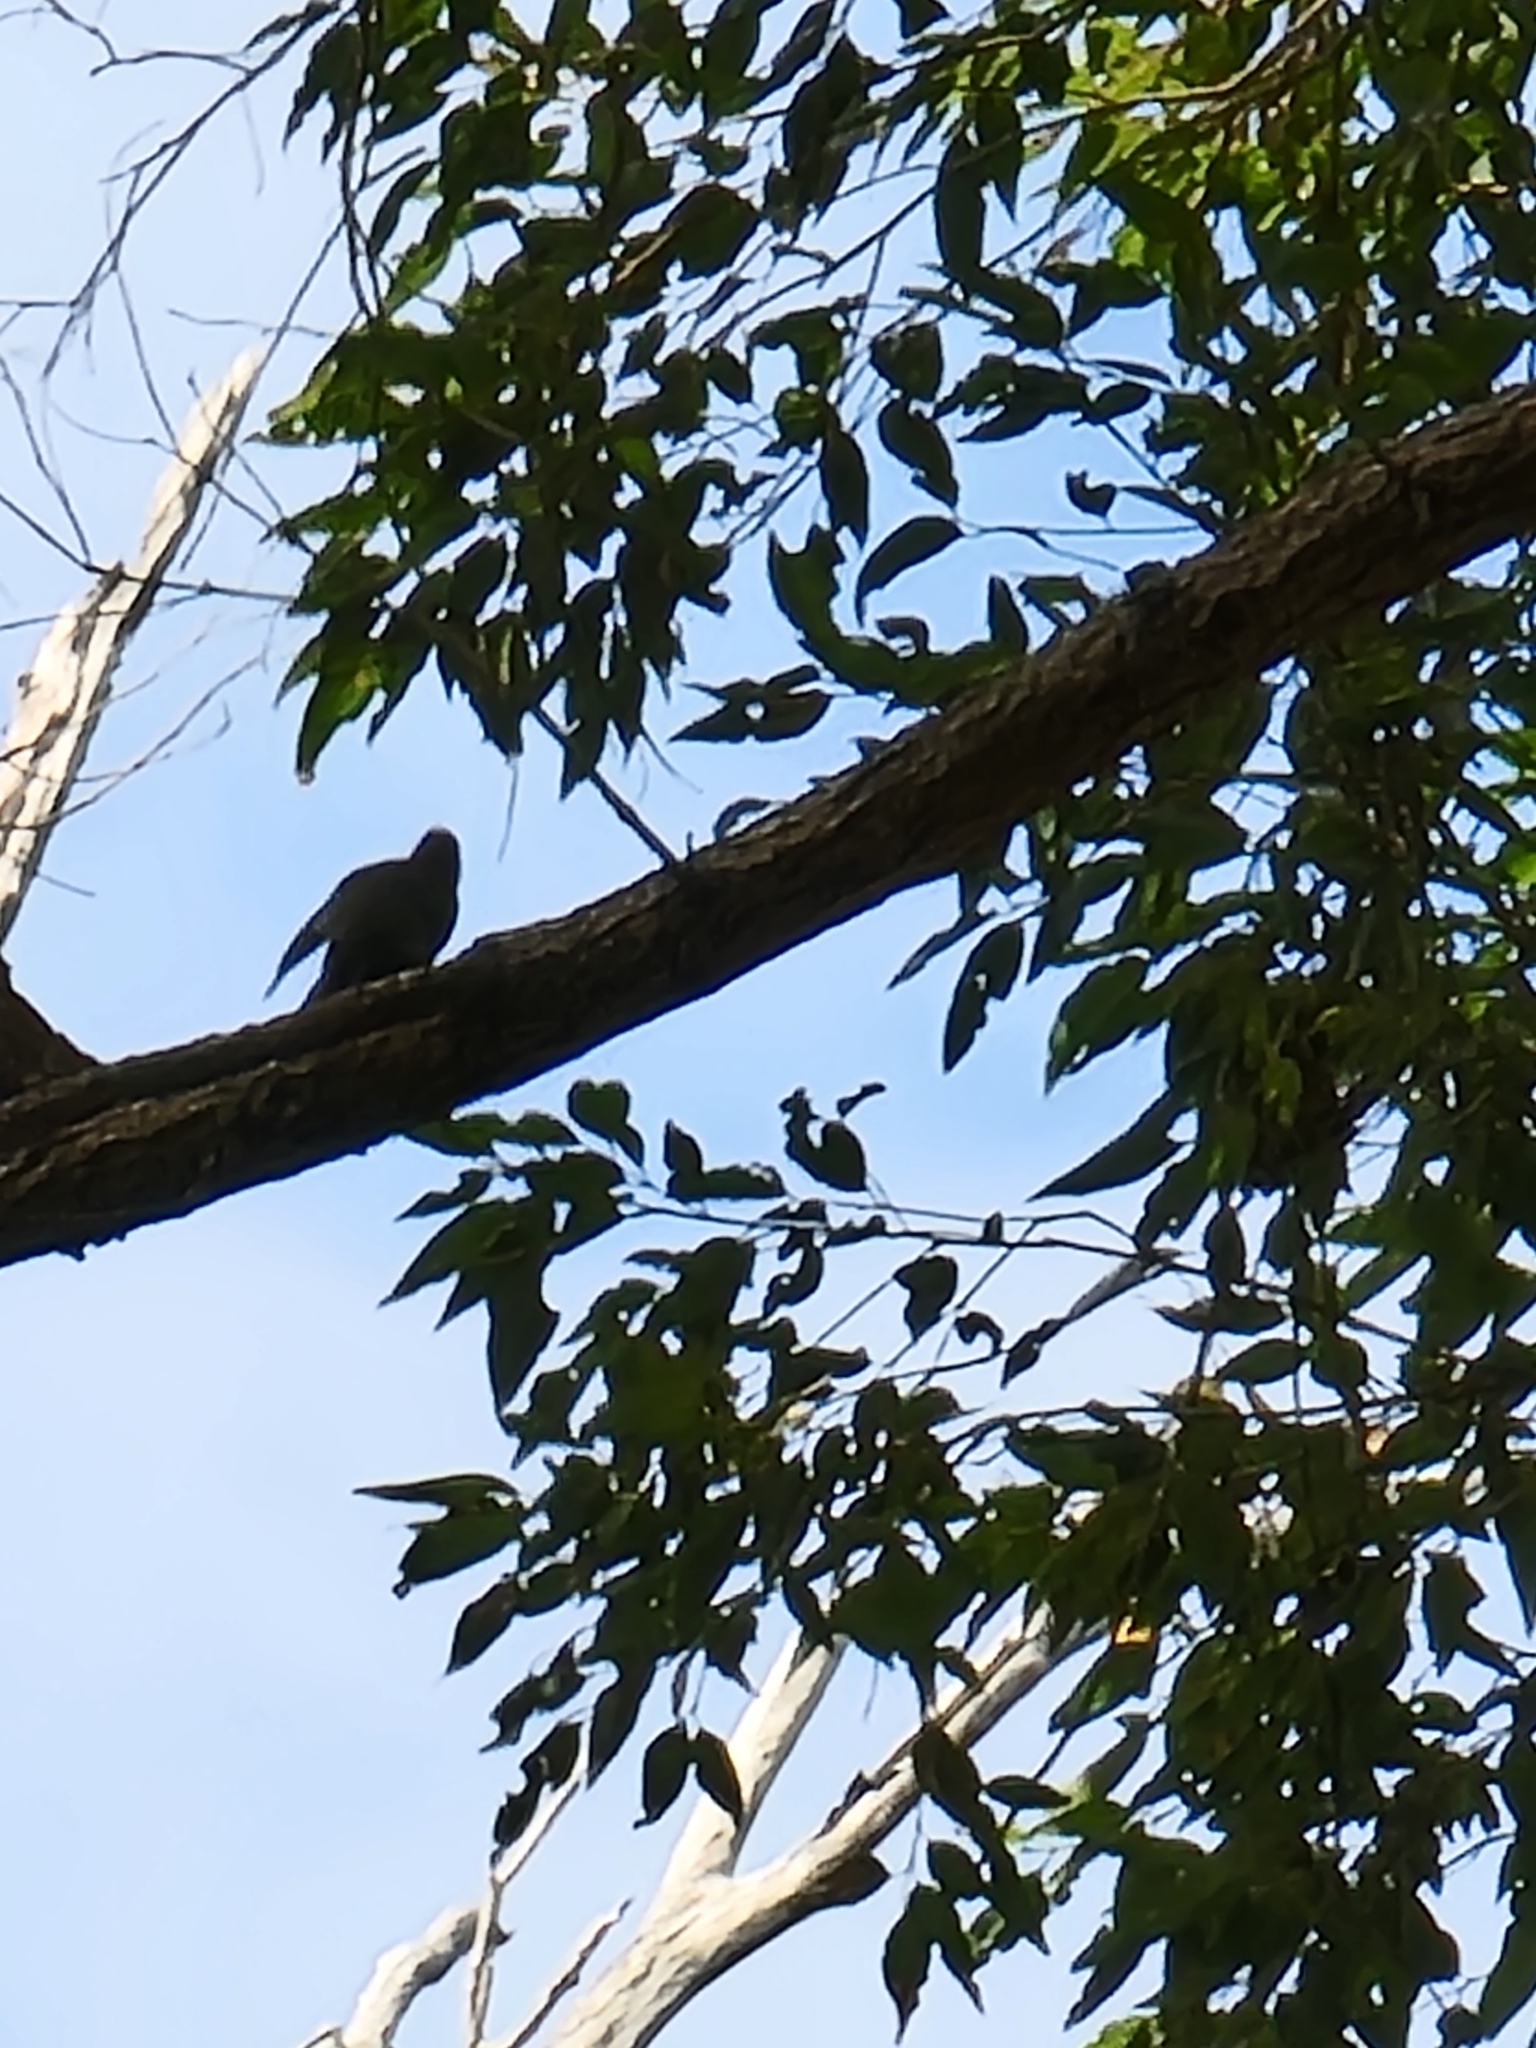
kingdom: Animalia
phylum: Chordata
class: Aves
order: Passeriformes
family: Meliphagidae
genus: Meliphaga
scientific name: Meliphaga lewinii
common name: Lewin's honeyeater
